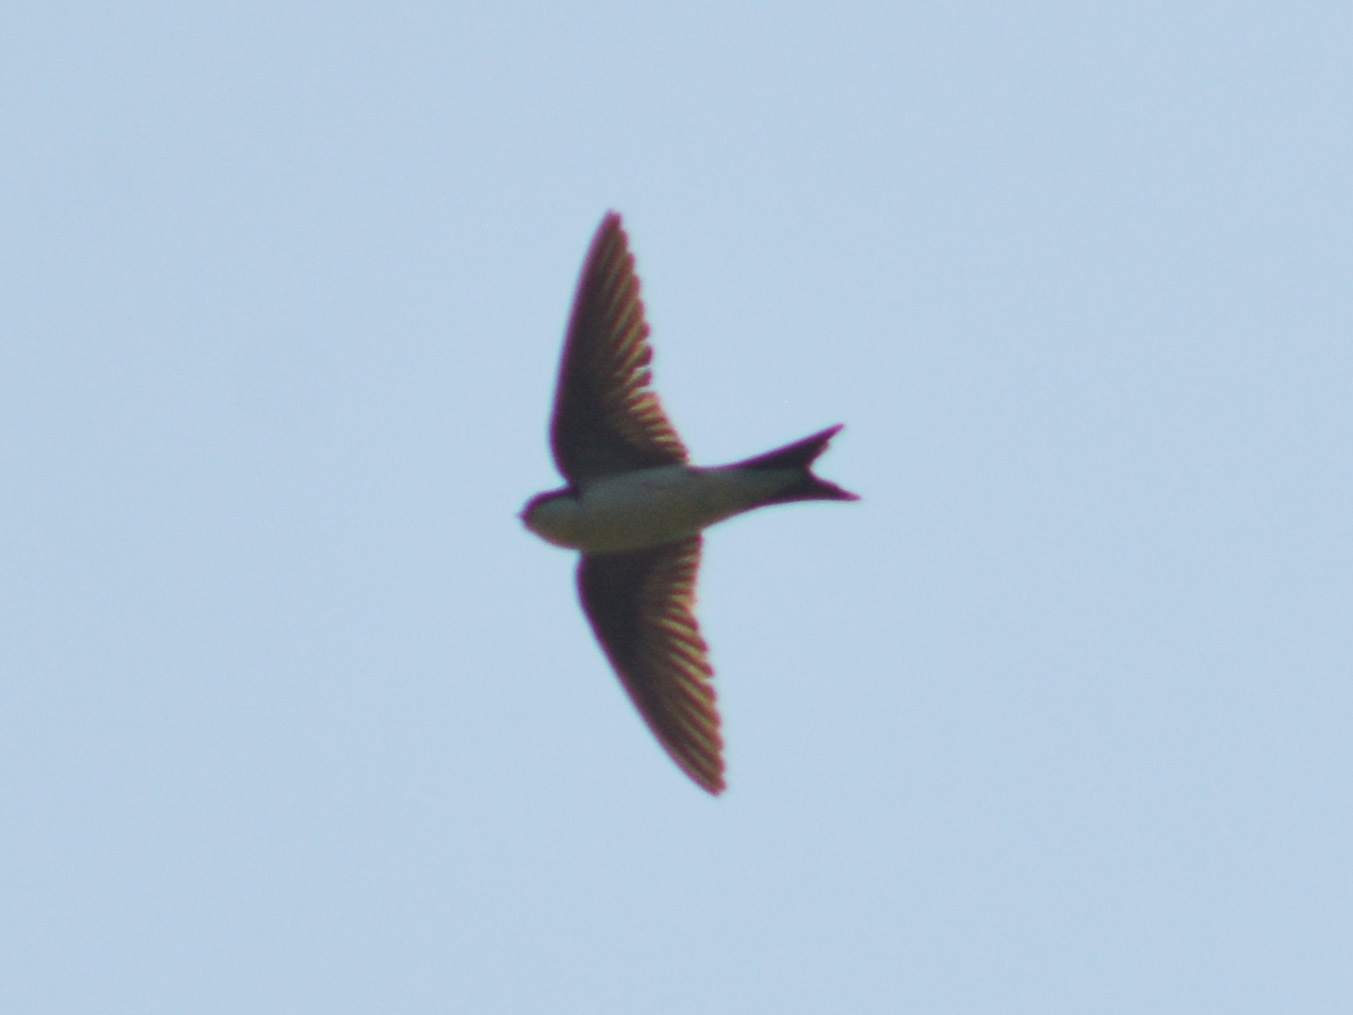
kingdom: Animalia
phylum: Chordata
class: Aves
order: Passeriformes
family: Hirundinidae
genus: Delichon
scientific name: Delichon urbicum
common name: Common house martin
